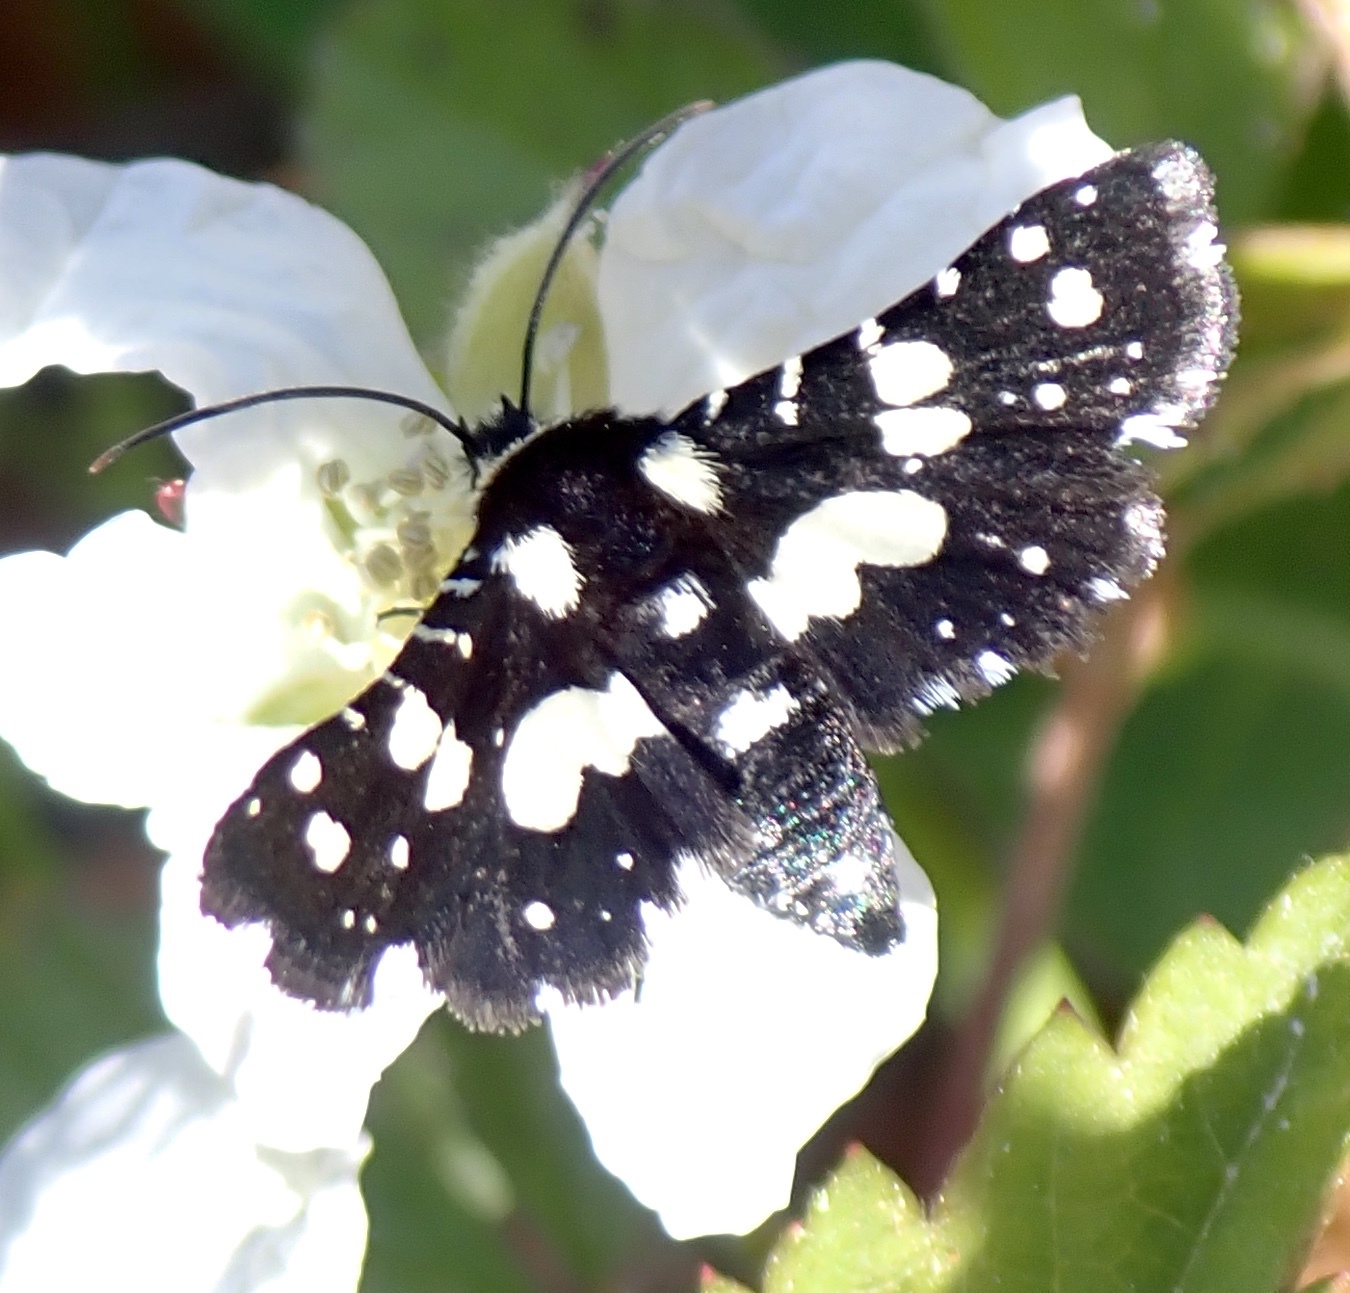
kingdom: Animalia
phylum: Arthropoda
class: Insecta
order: Lepidoptera
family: Thyrididae
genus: Pseudothyris
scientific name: Pseudothyris sepulchralis
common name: Mournful thyris moth
